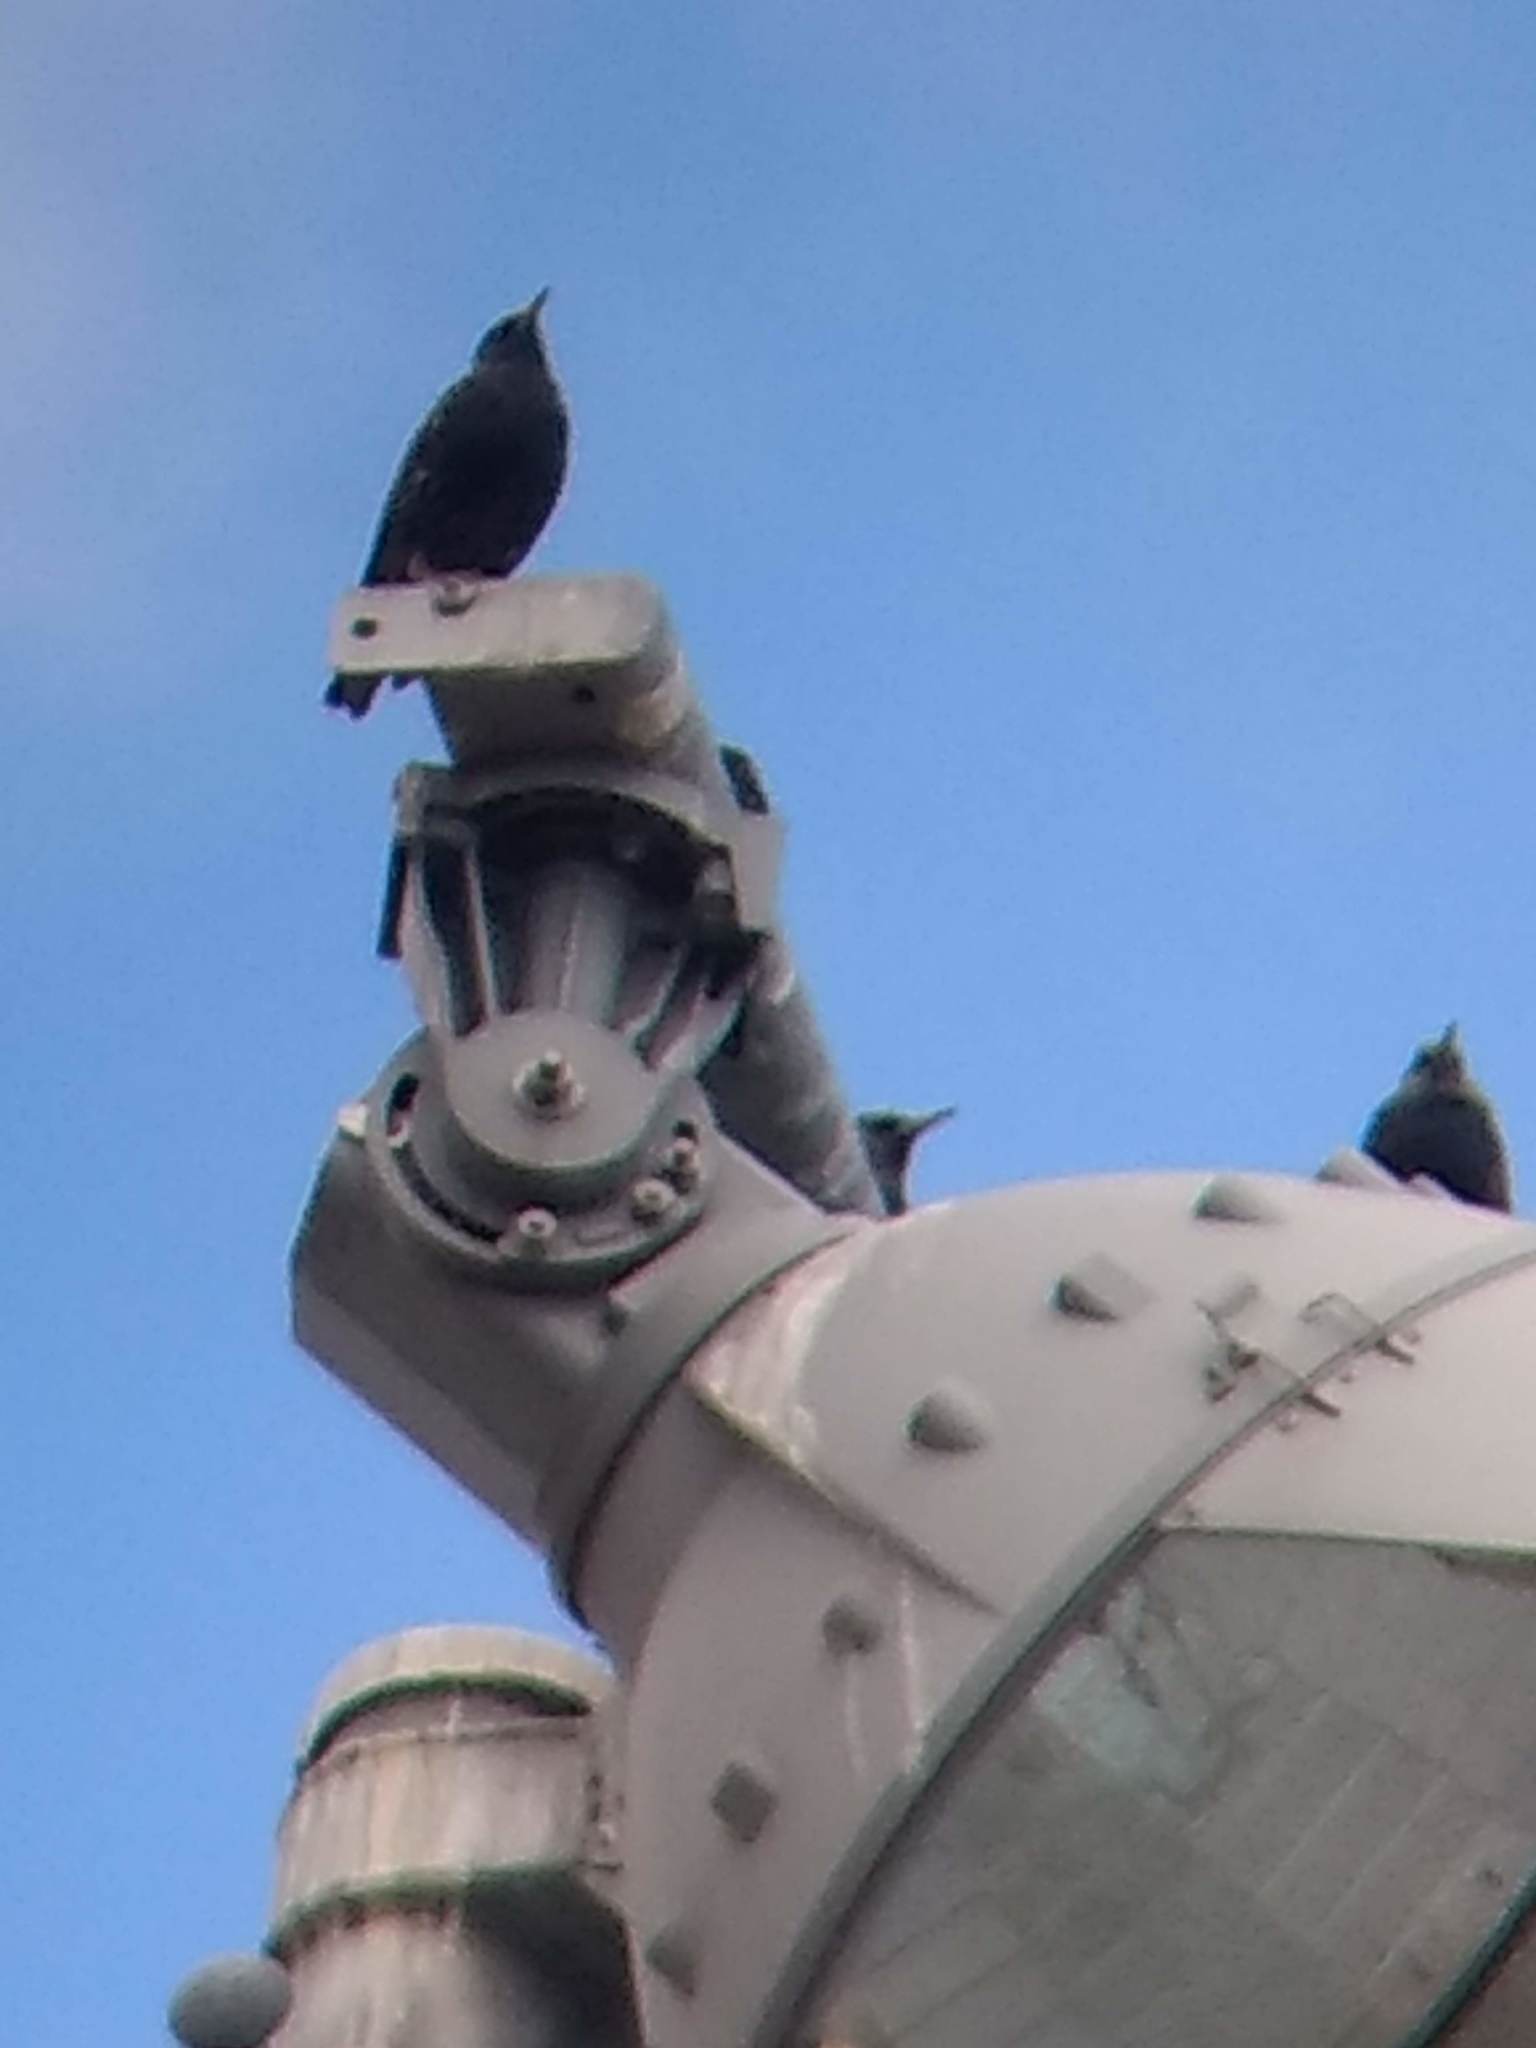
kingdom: Animalia
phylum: Chordata
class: Aves
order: Passeriformes
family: Sturnidae
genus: Sturnus
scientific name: Sturnus vulgaris
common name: Common starling
